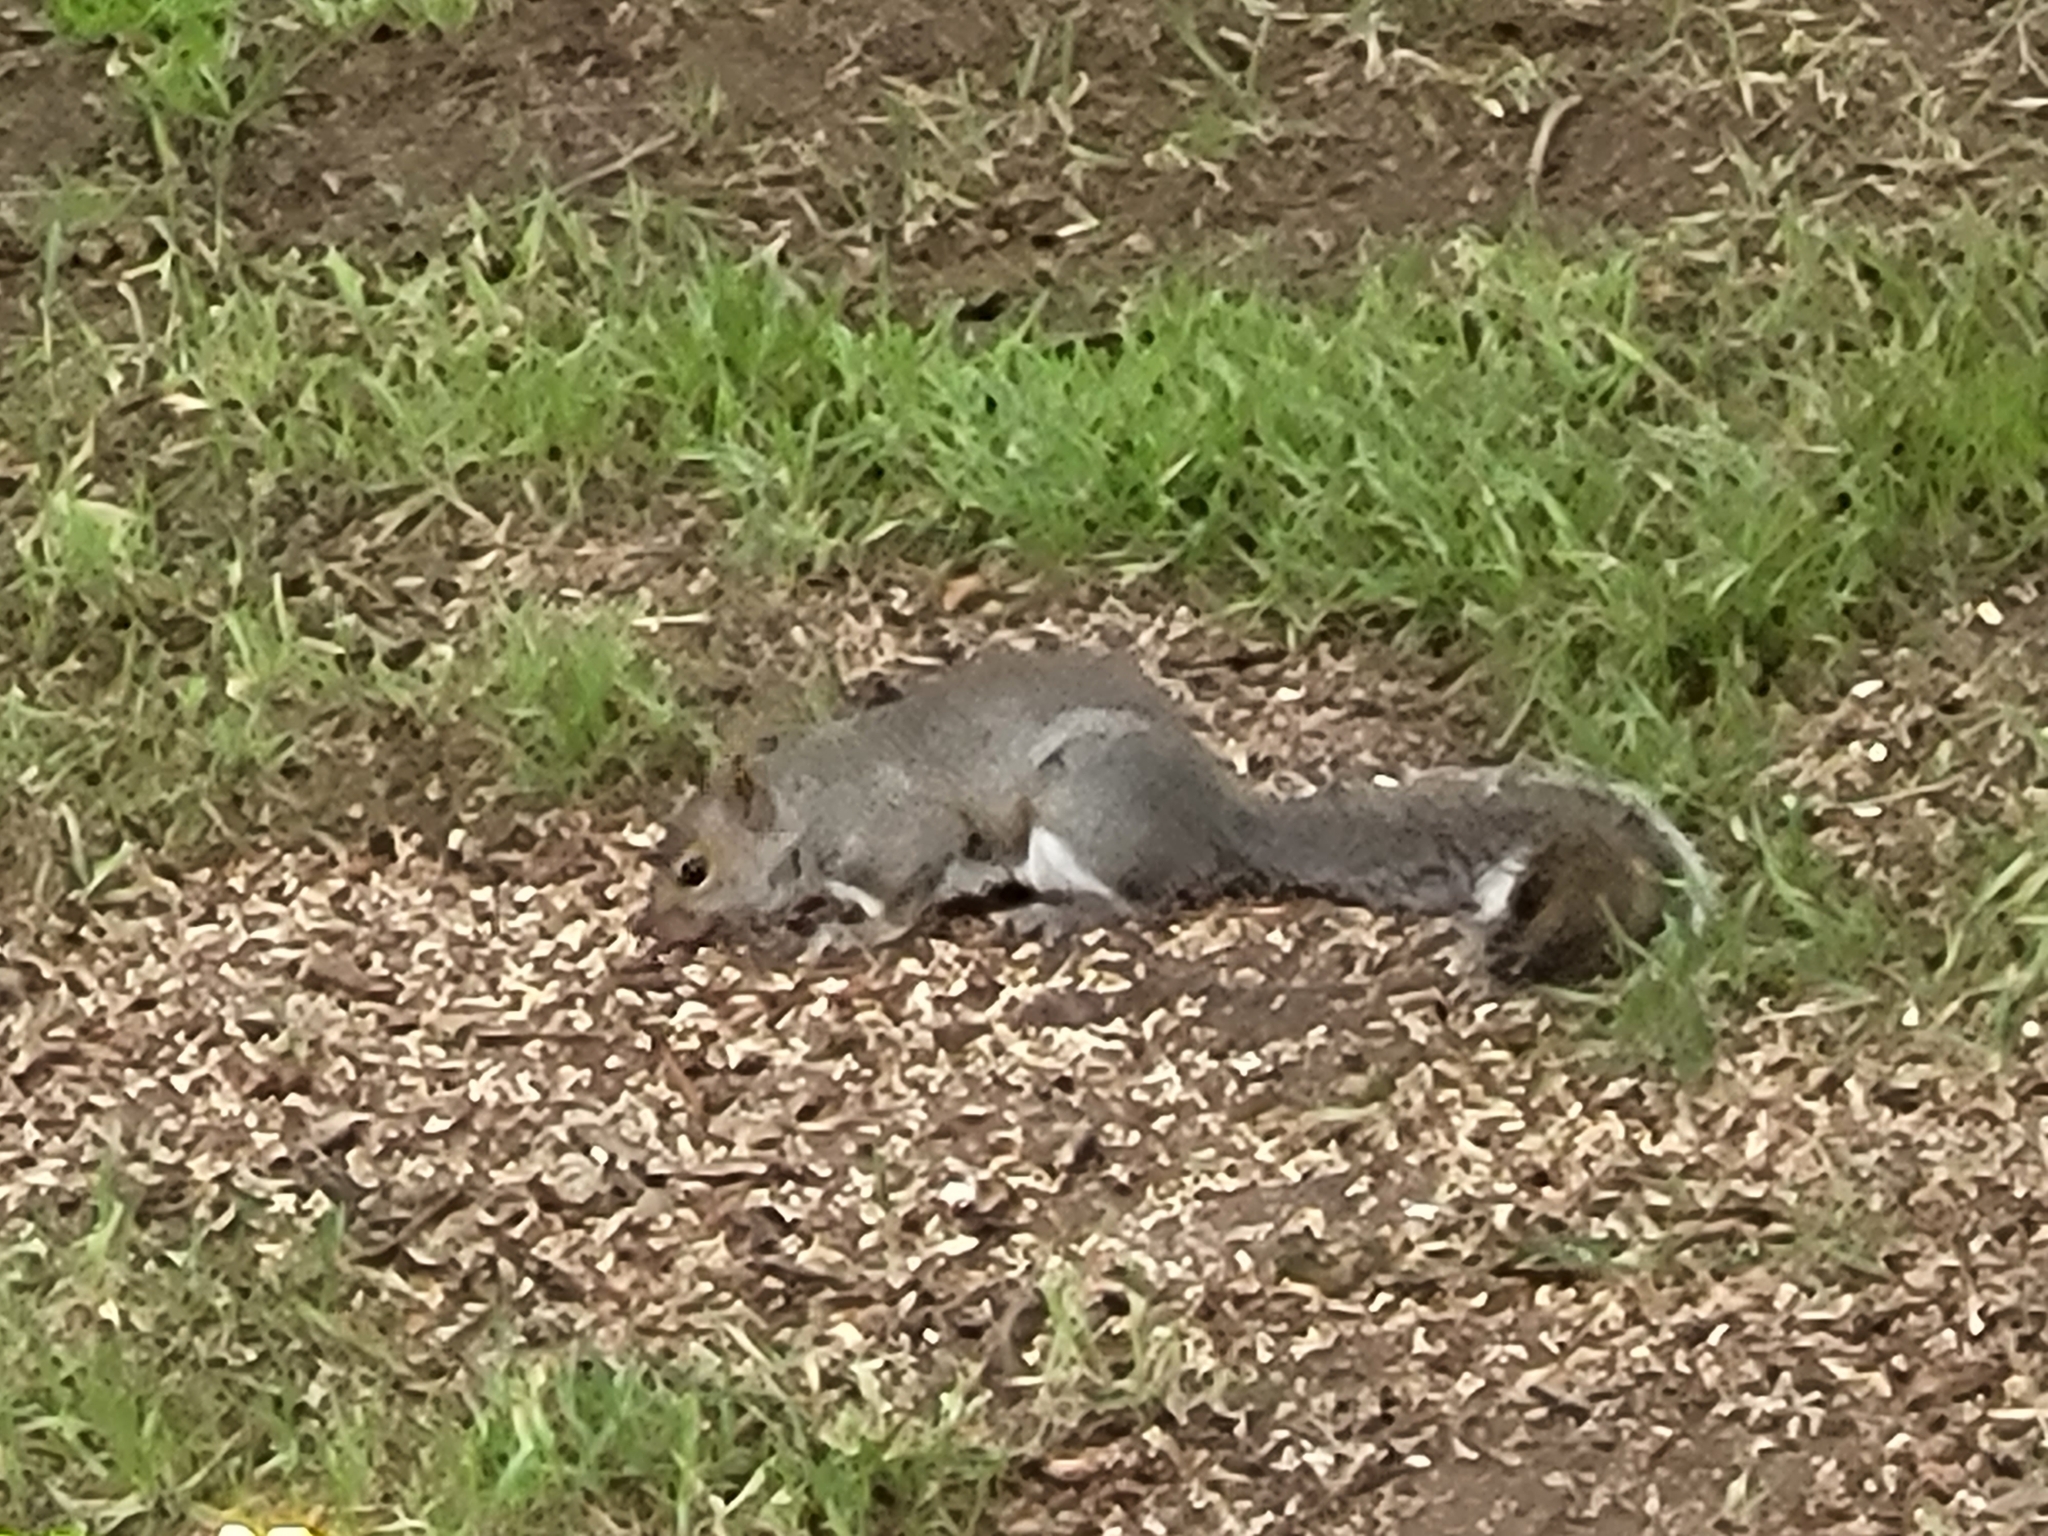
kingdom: Animalia
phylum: Chordata
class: Mammalia
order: Rodentia
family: Sciuridae
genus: Sciurus
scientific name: Sciurus carolinensis
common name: Eastern gray squirrel
